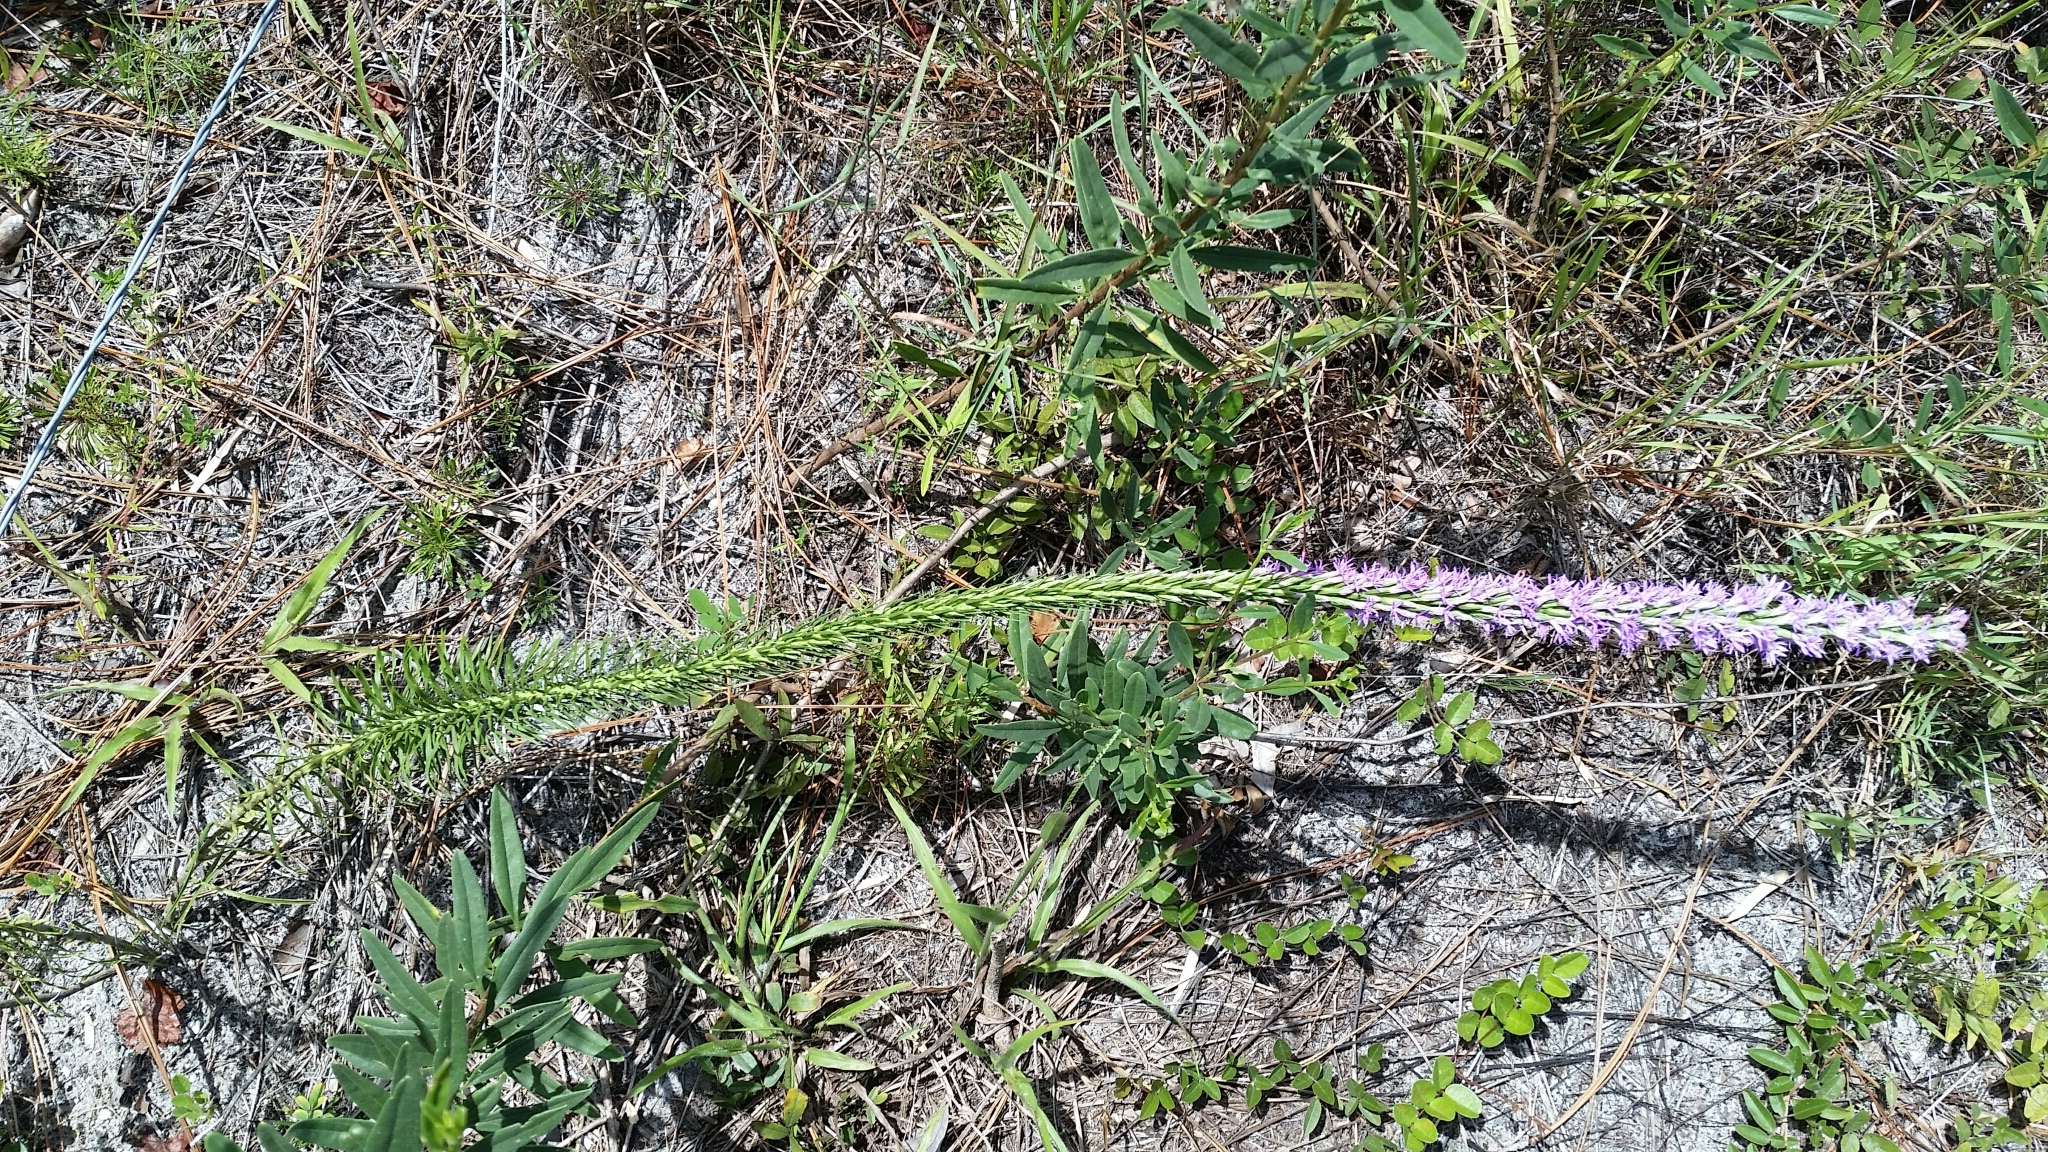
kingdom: Plantae
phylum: Tracheophyta
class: Magnoliopsida
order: Asterales
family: Asteraceae
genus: Liatris
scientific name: Liatris chapmanii
